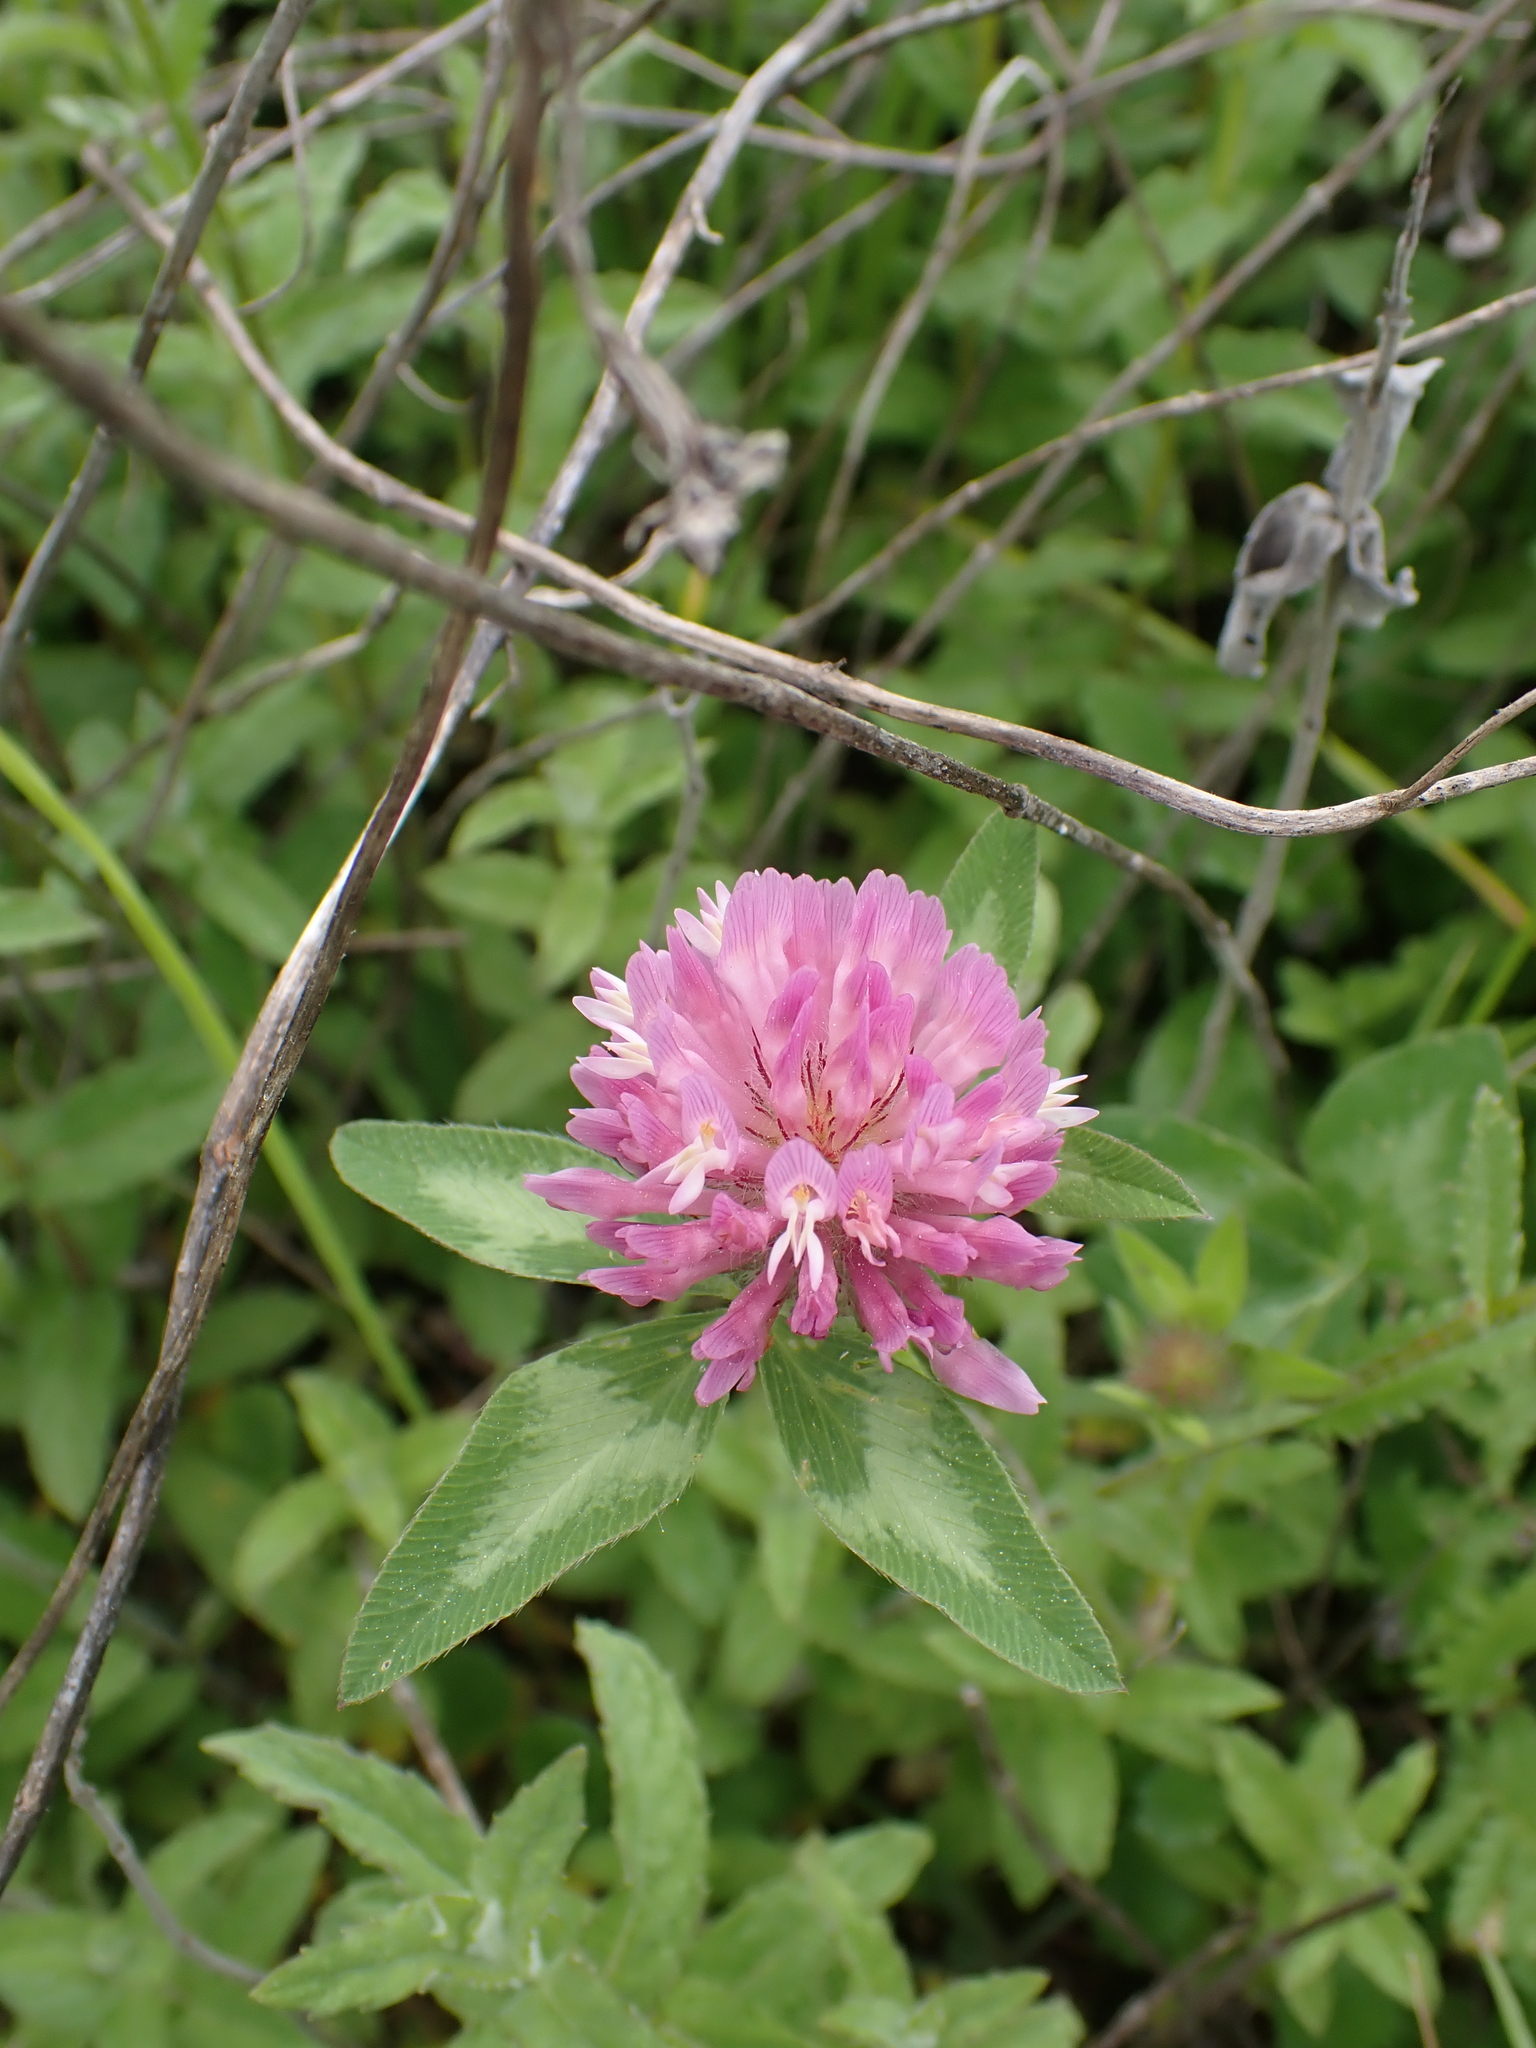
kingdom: Plantae
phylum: Tracheophyta
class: Magnoliopsida
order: Fabales
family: Fabaceae
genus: Trifolium
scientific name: Trifolium pratense
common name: Red clover
